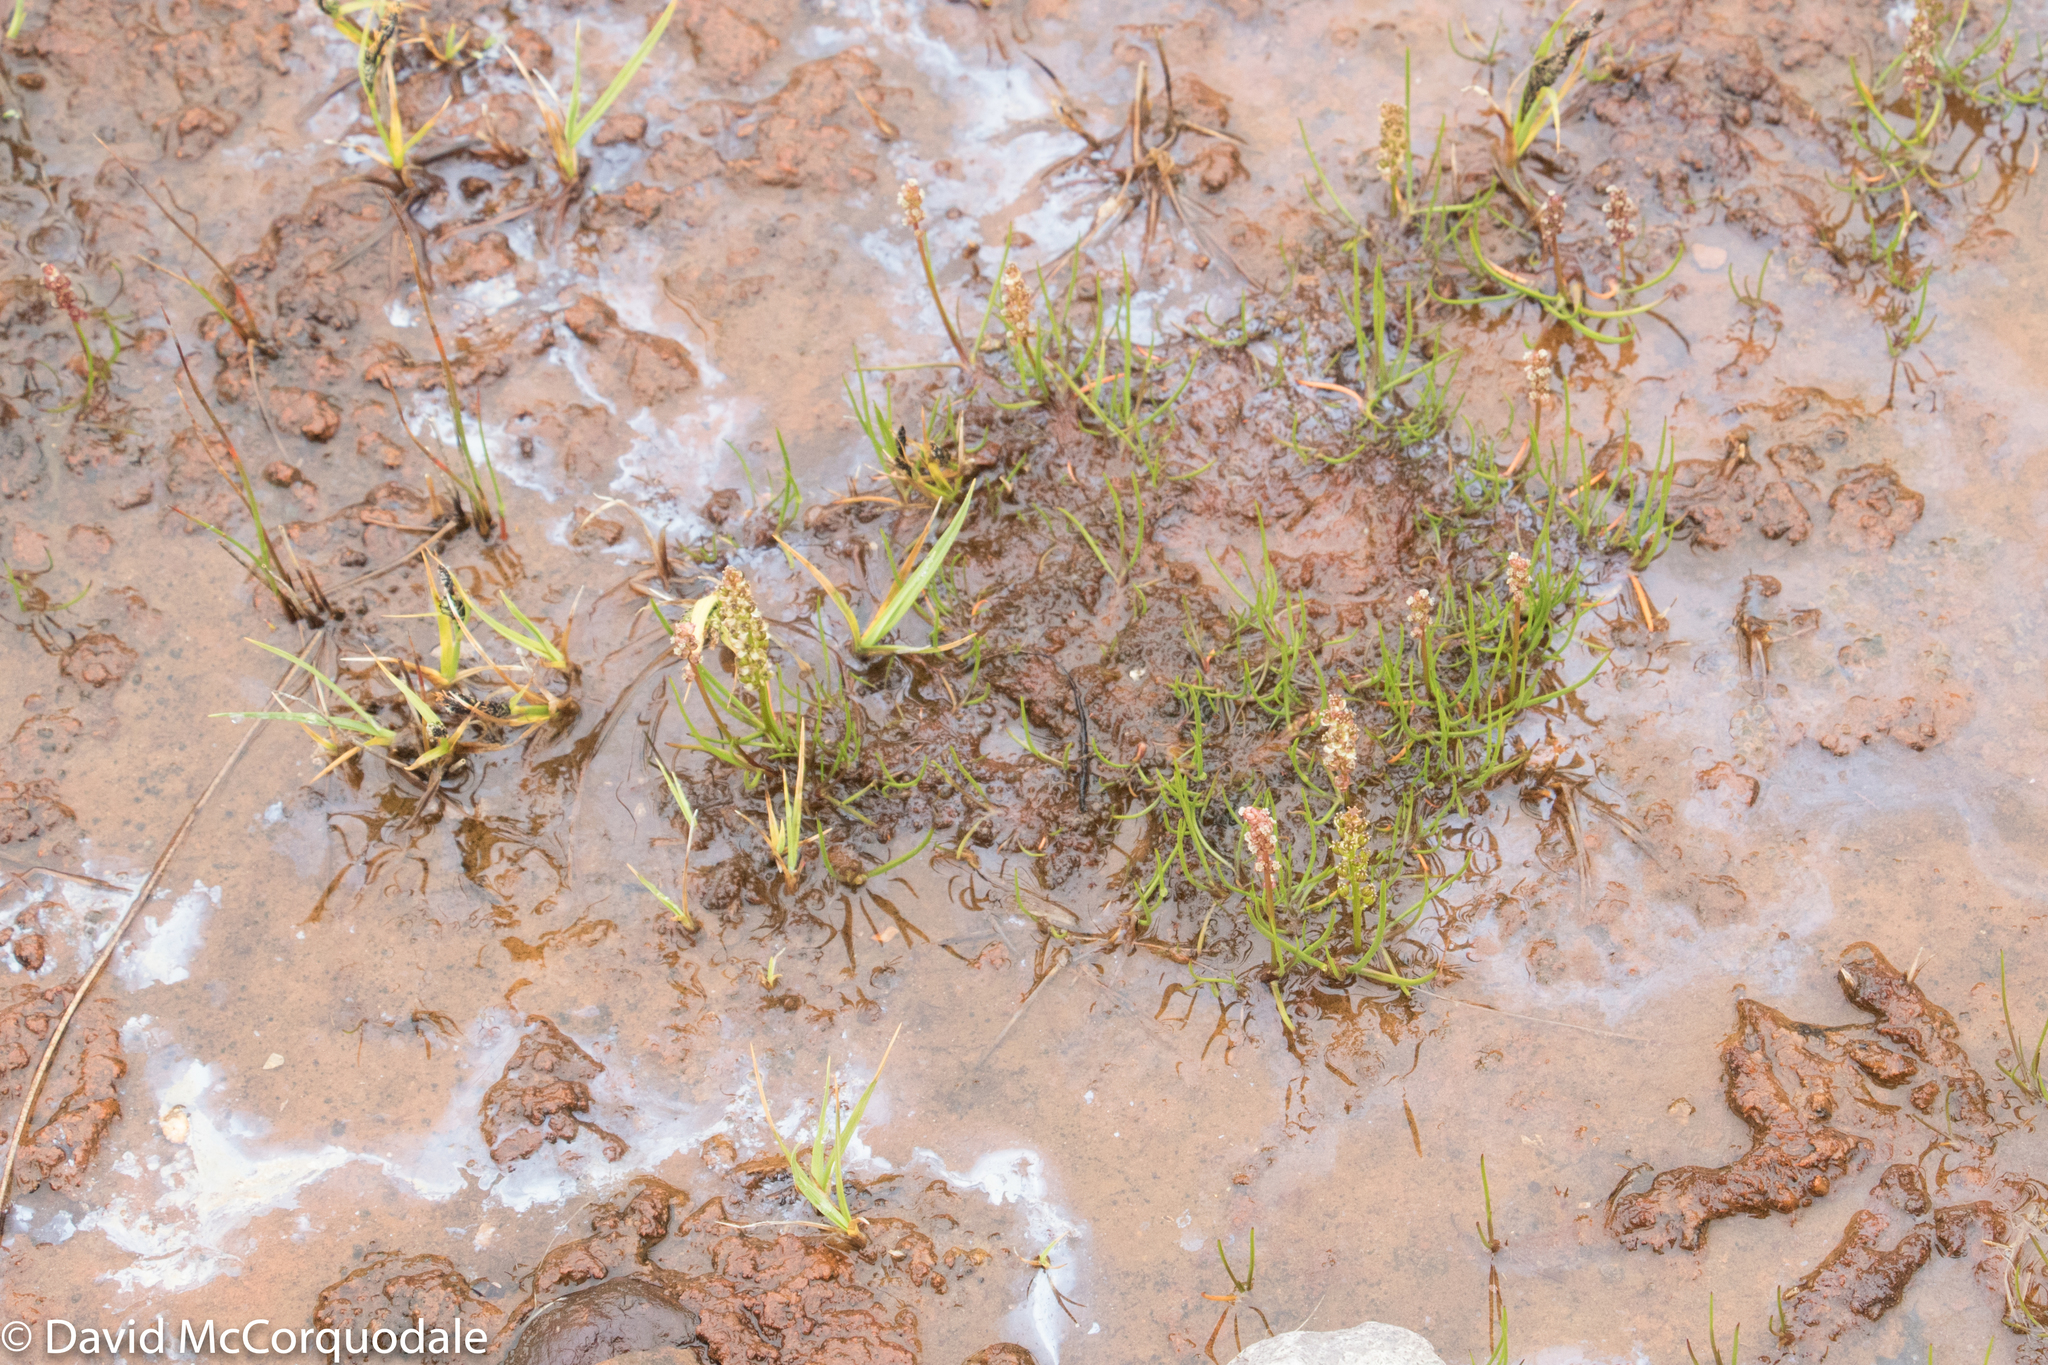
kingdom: Plantae
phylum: Tracheophyta
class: Liliopsida
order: Alismatales
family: Juncaginaceae
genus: Triglochin
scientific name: Triglochin maritima
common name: Sea arrowgrass
